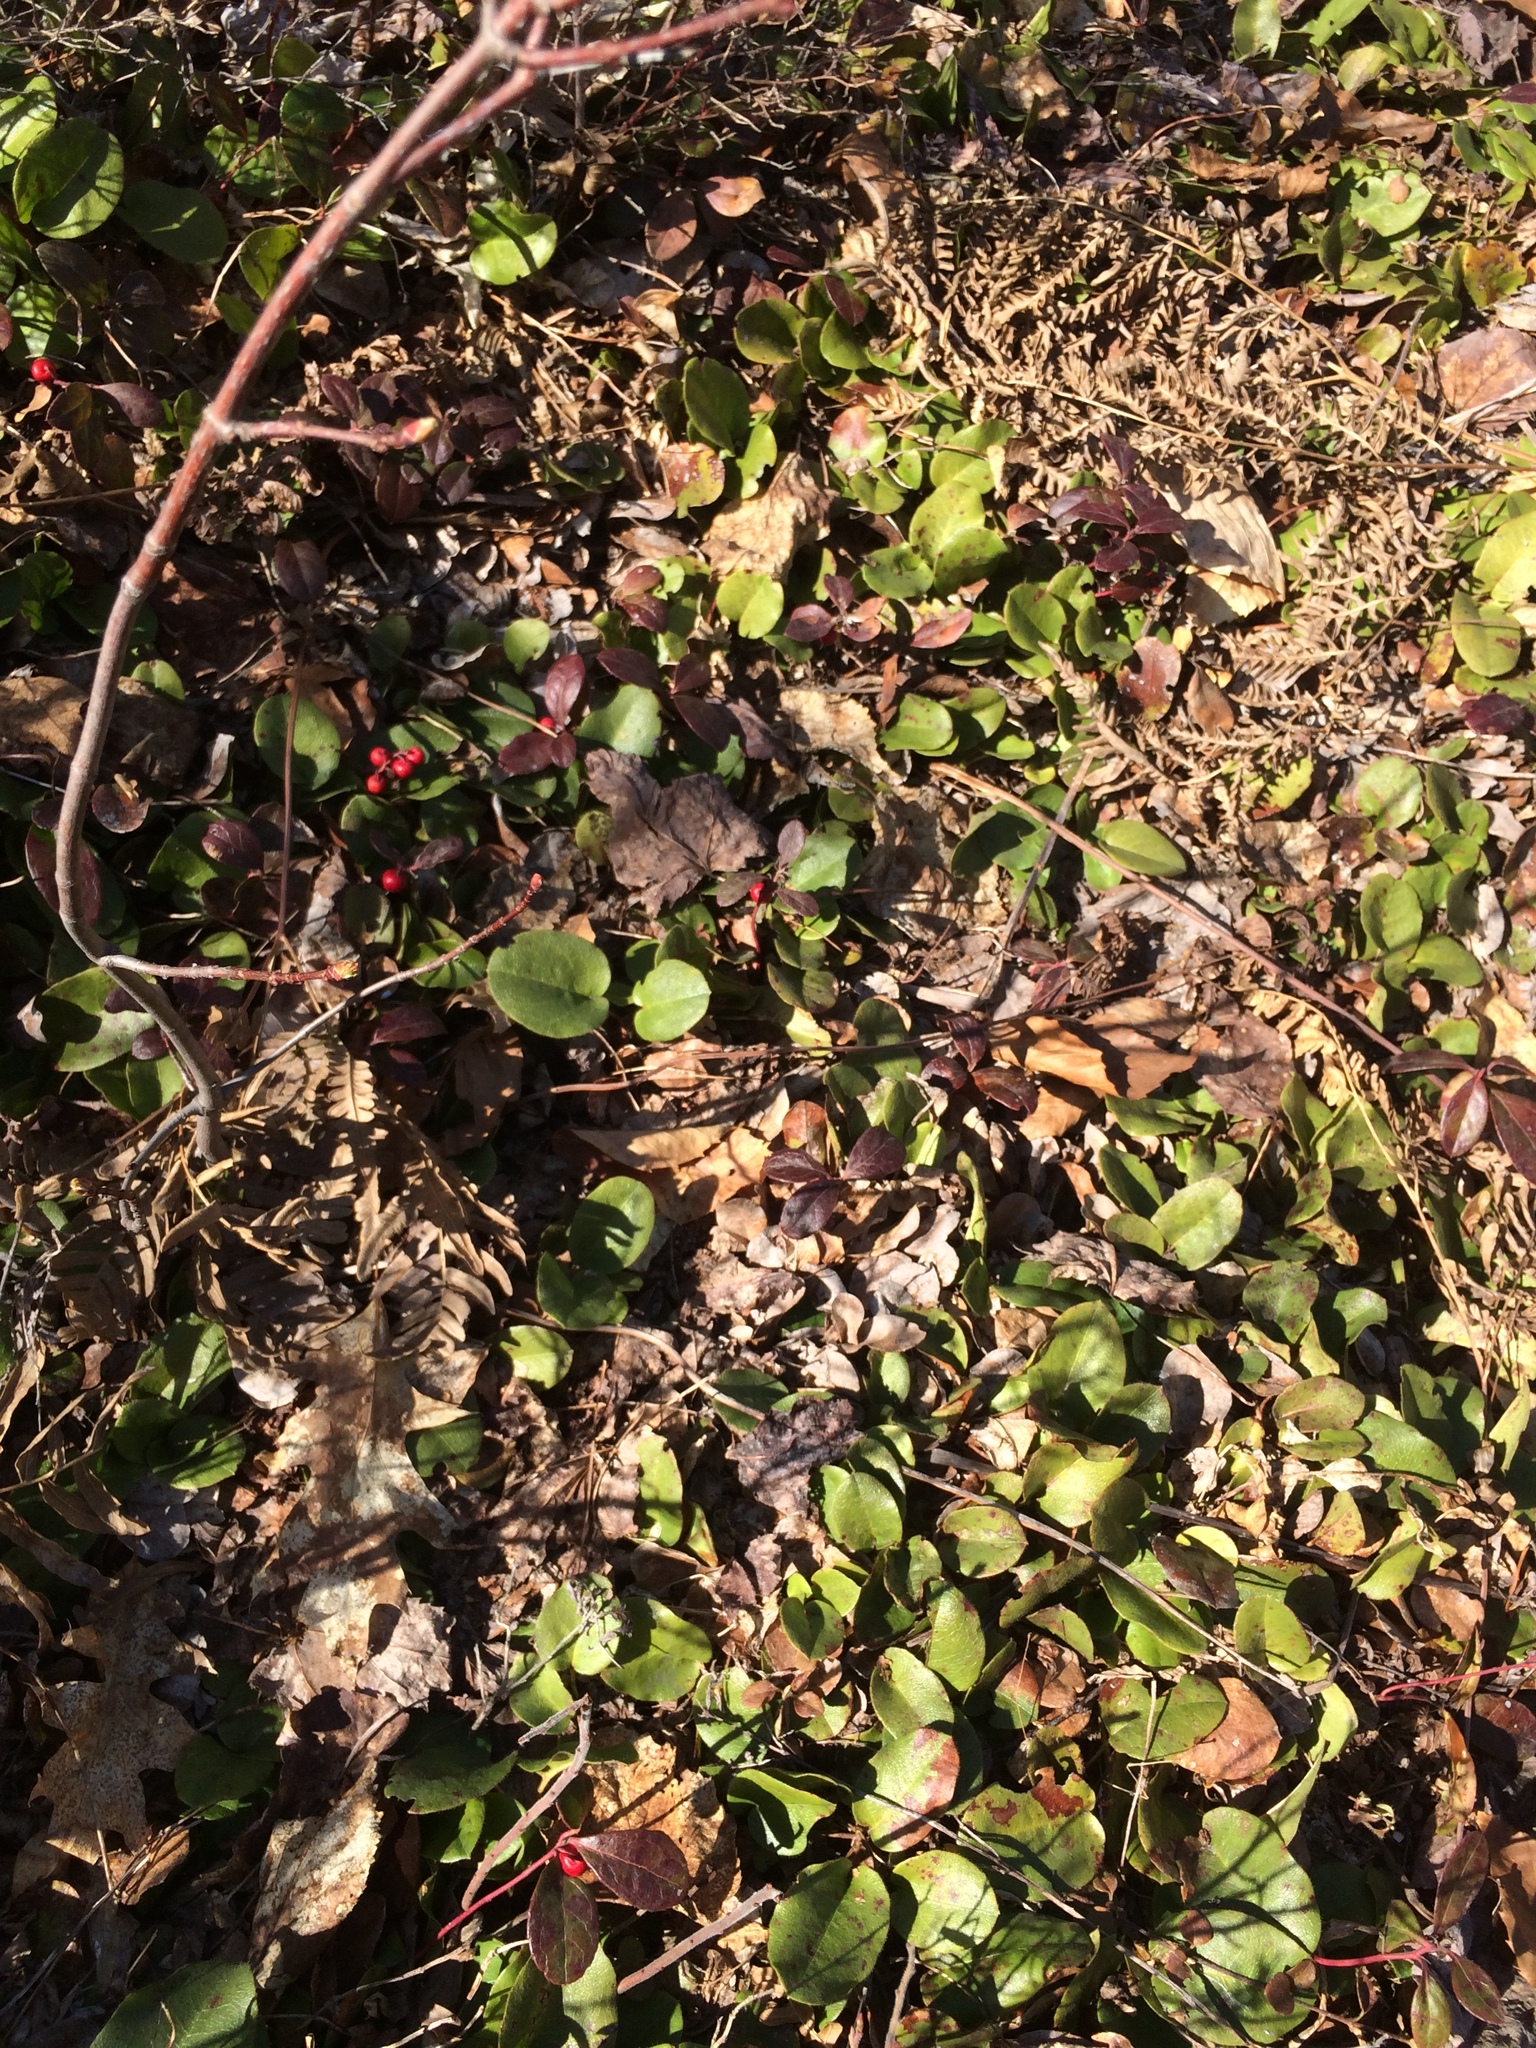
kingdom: Plantae
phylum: Tracheophyta
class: Magnoliopsida
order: Ericales
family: Ericaceae
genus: Gaultheria
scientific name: Gaultheria procumbens
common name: Checkerberry
